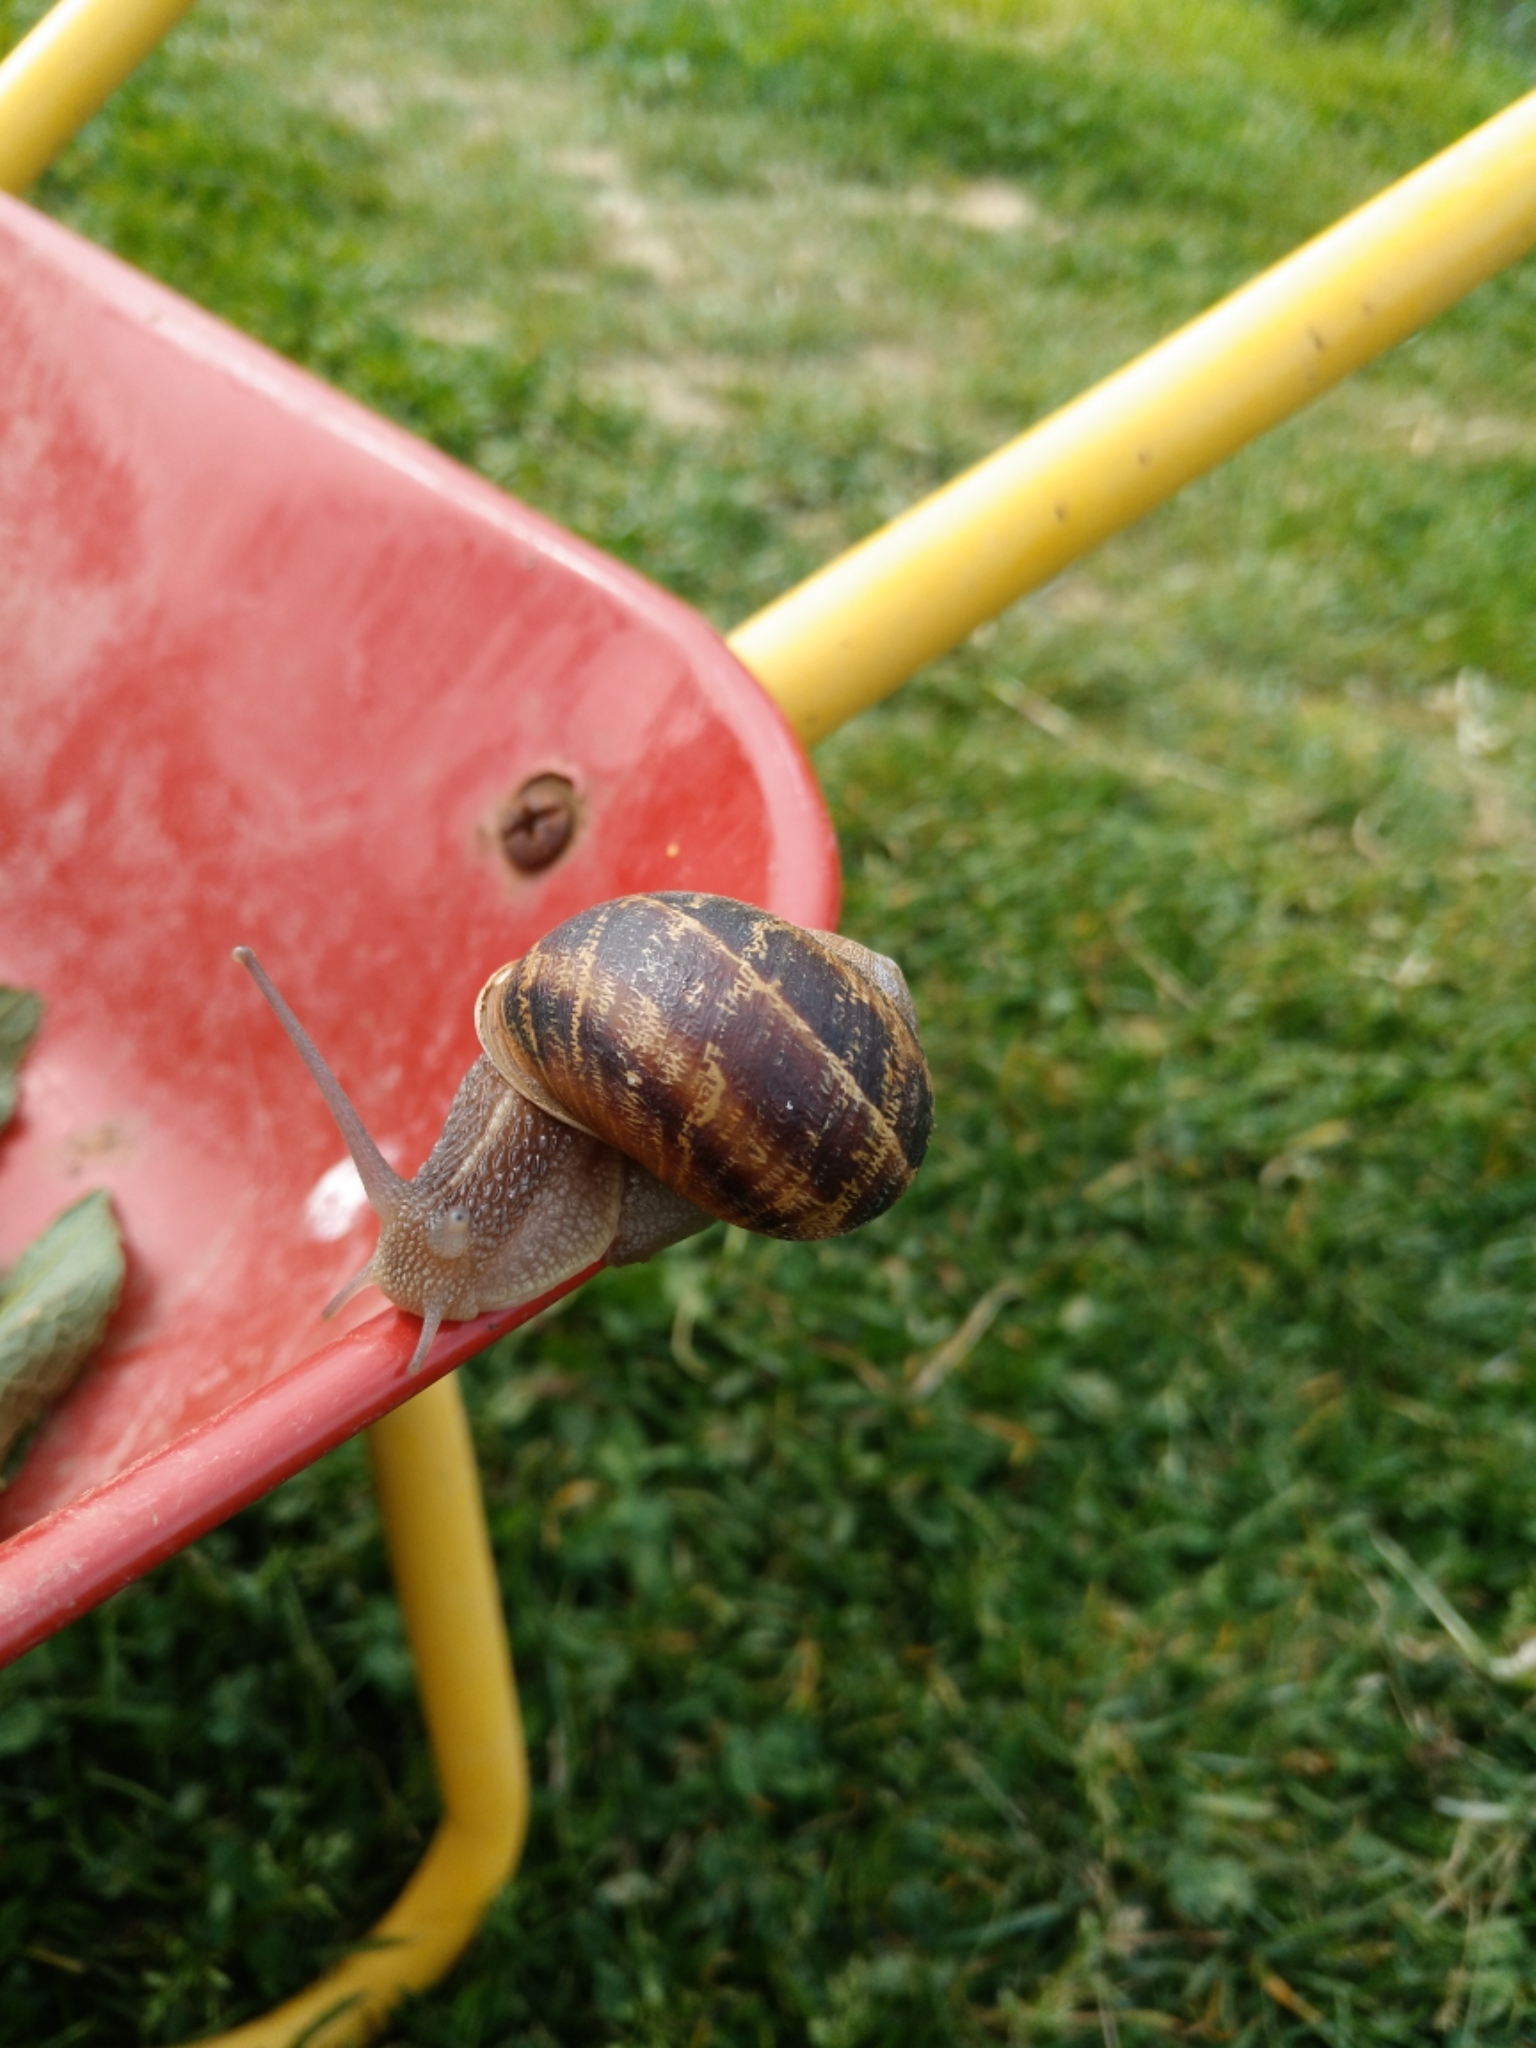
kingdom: Animalia
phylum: Mollusca
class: Gastropoda
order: Stylommatophora
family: Helicidae
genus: Cornu
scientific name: Cornu aspersum
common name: Brown garden snail
